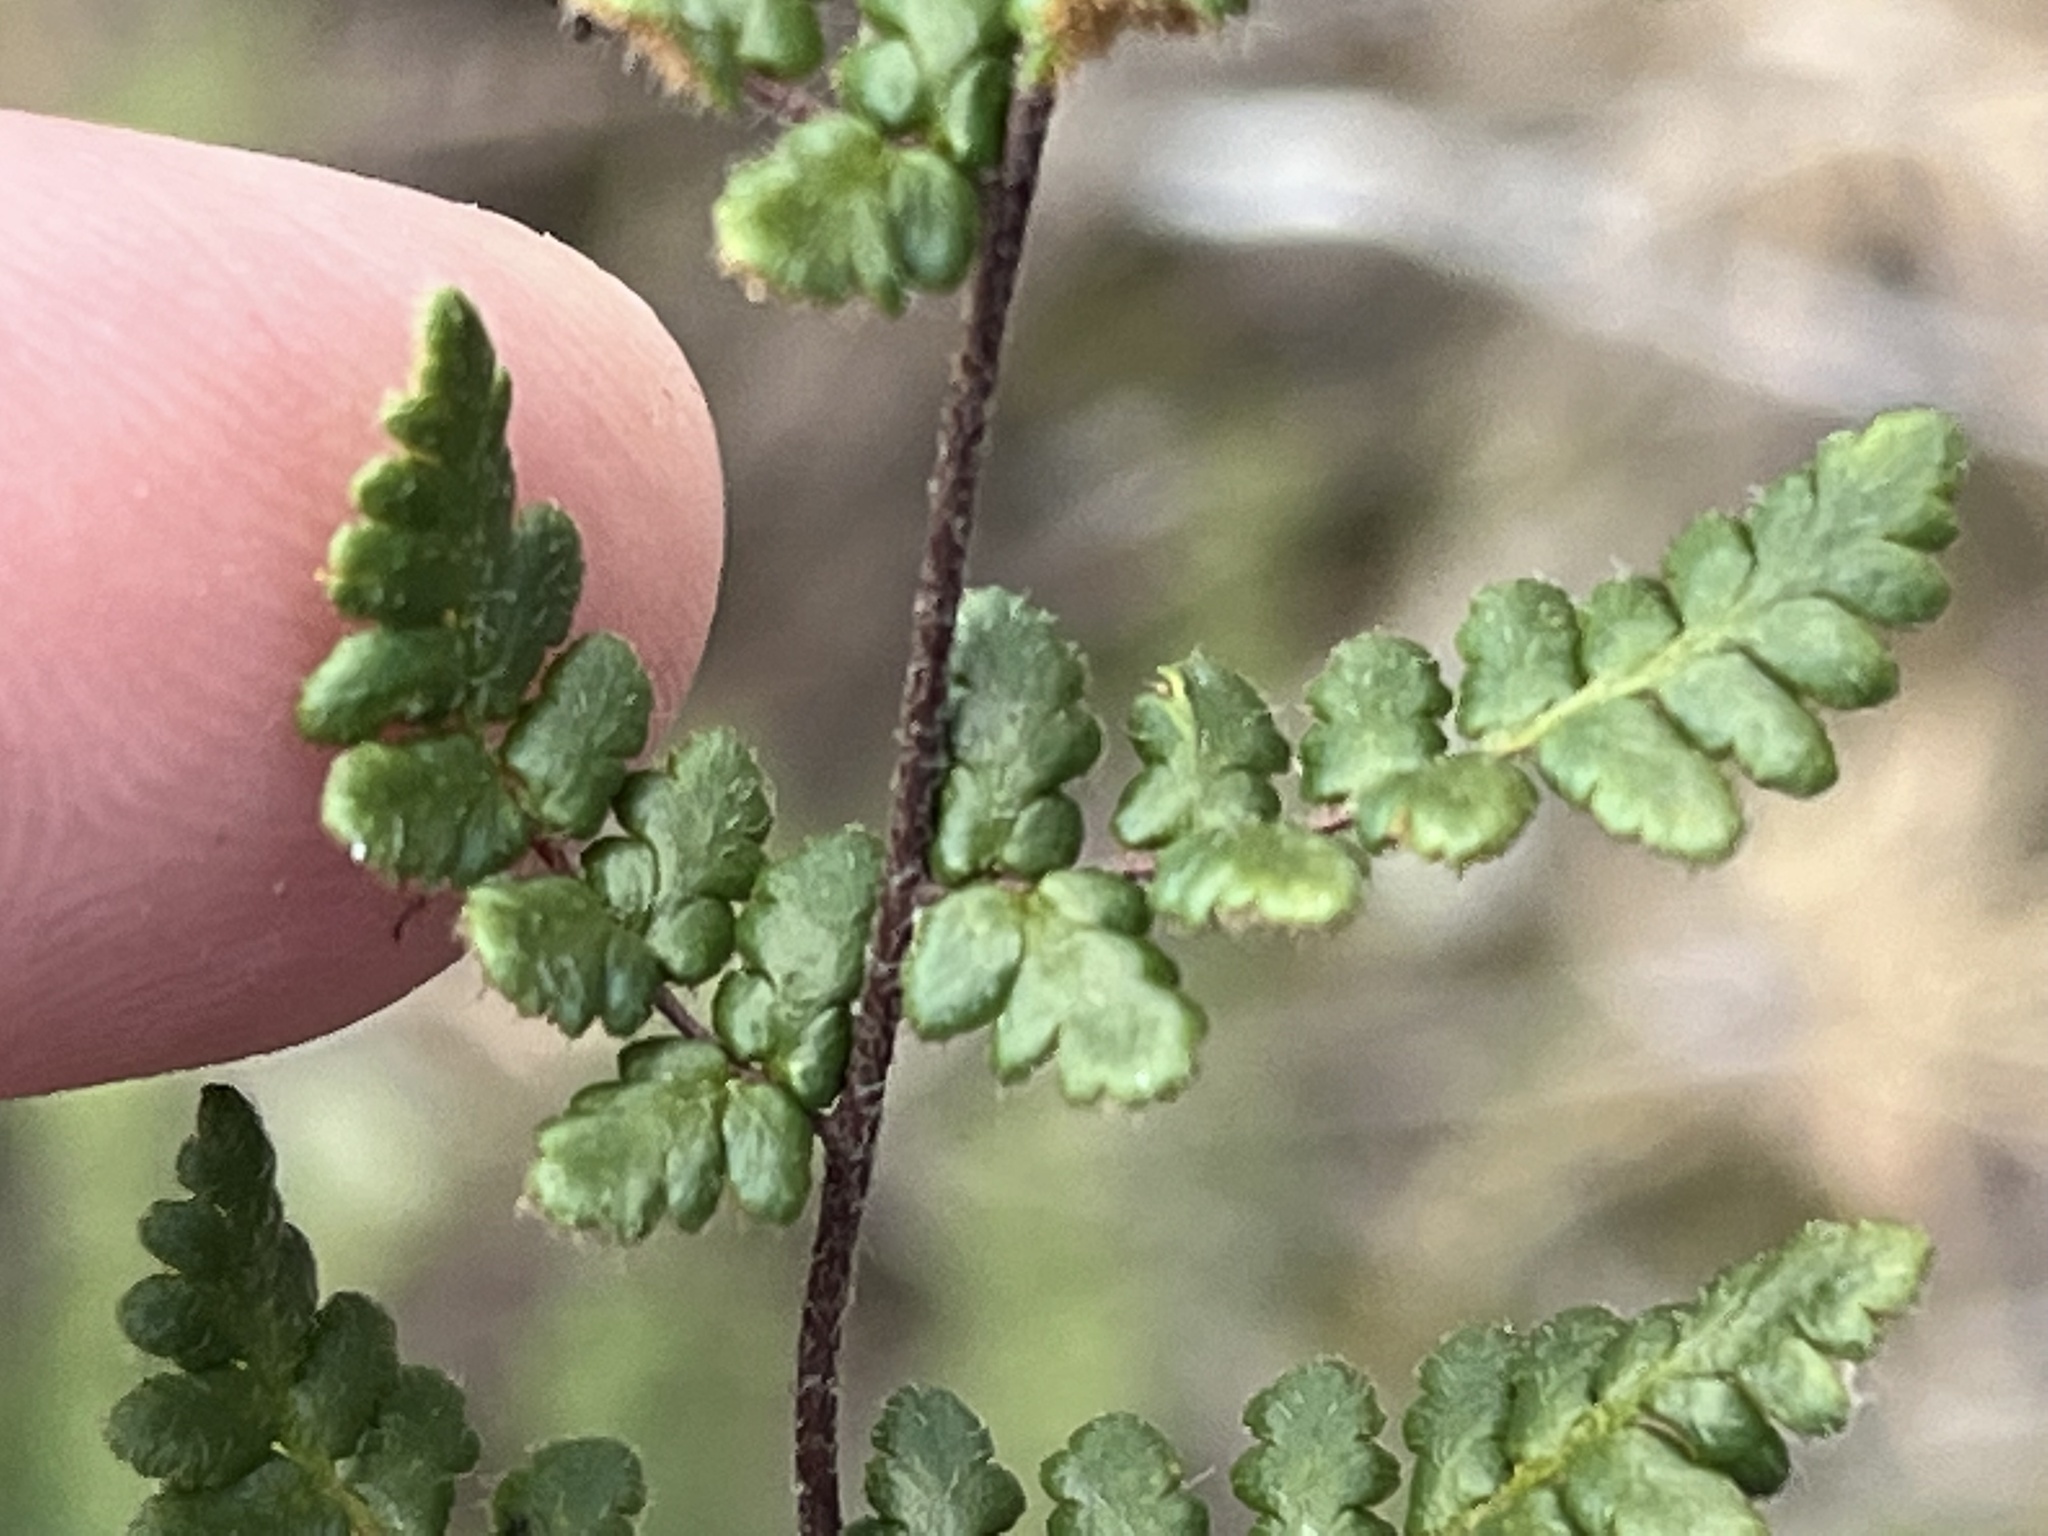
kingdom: Plantae
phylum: Tracheophyta
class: Polypodiopsida
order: Polypodiales
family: Pteridaceae
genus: Myriopteris
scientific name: Myriopteris lanosa
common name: Hairy lip fern
